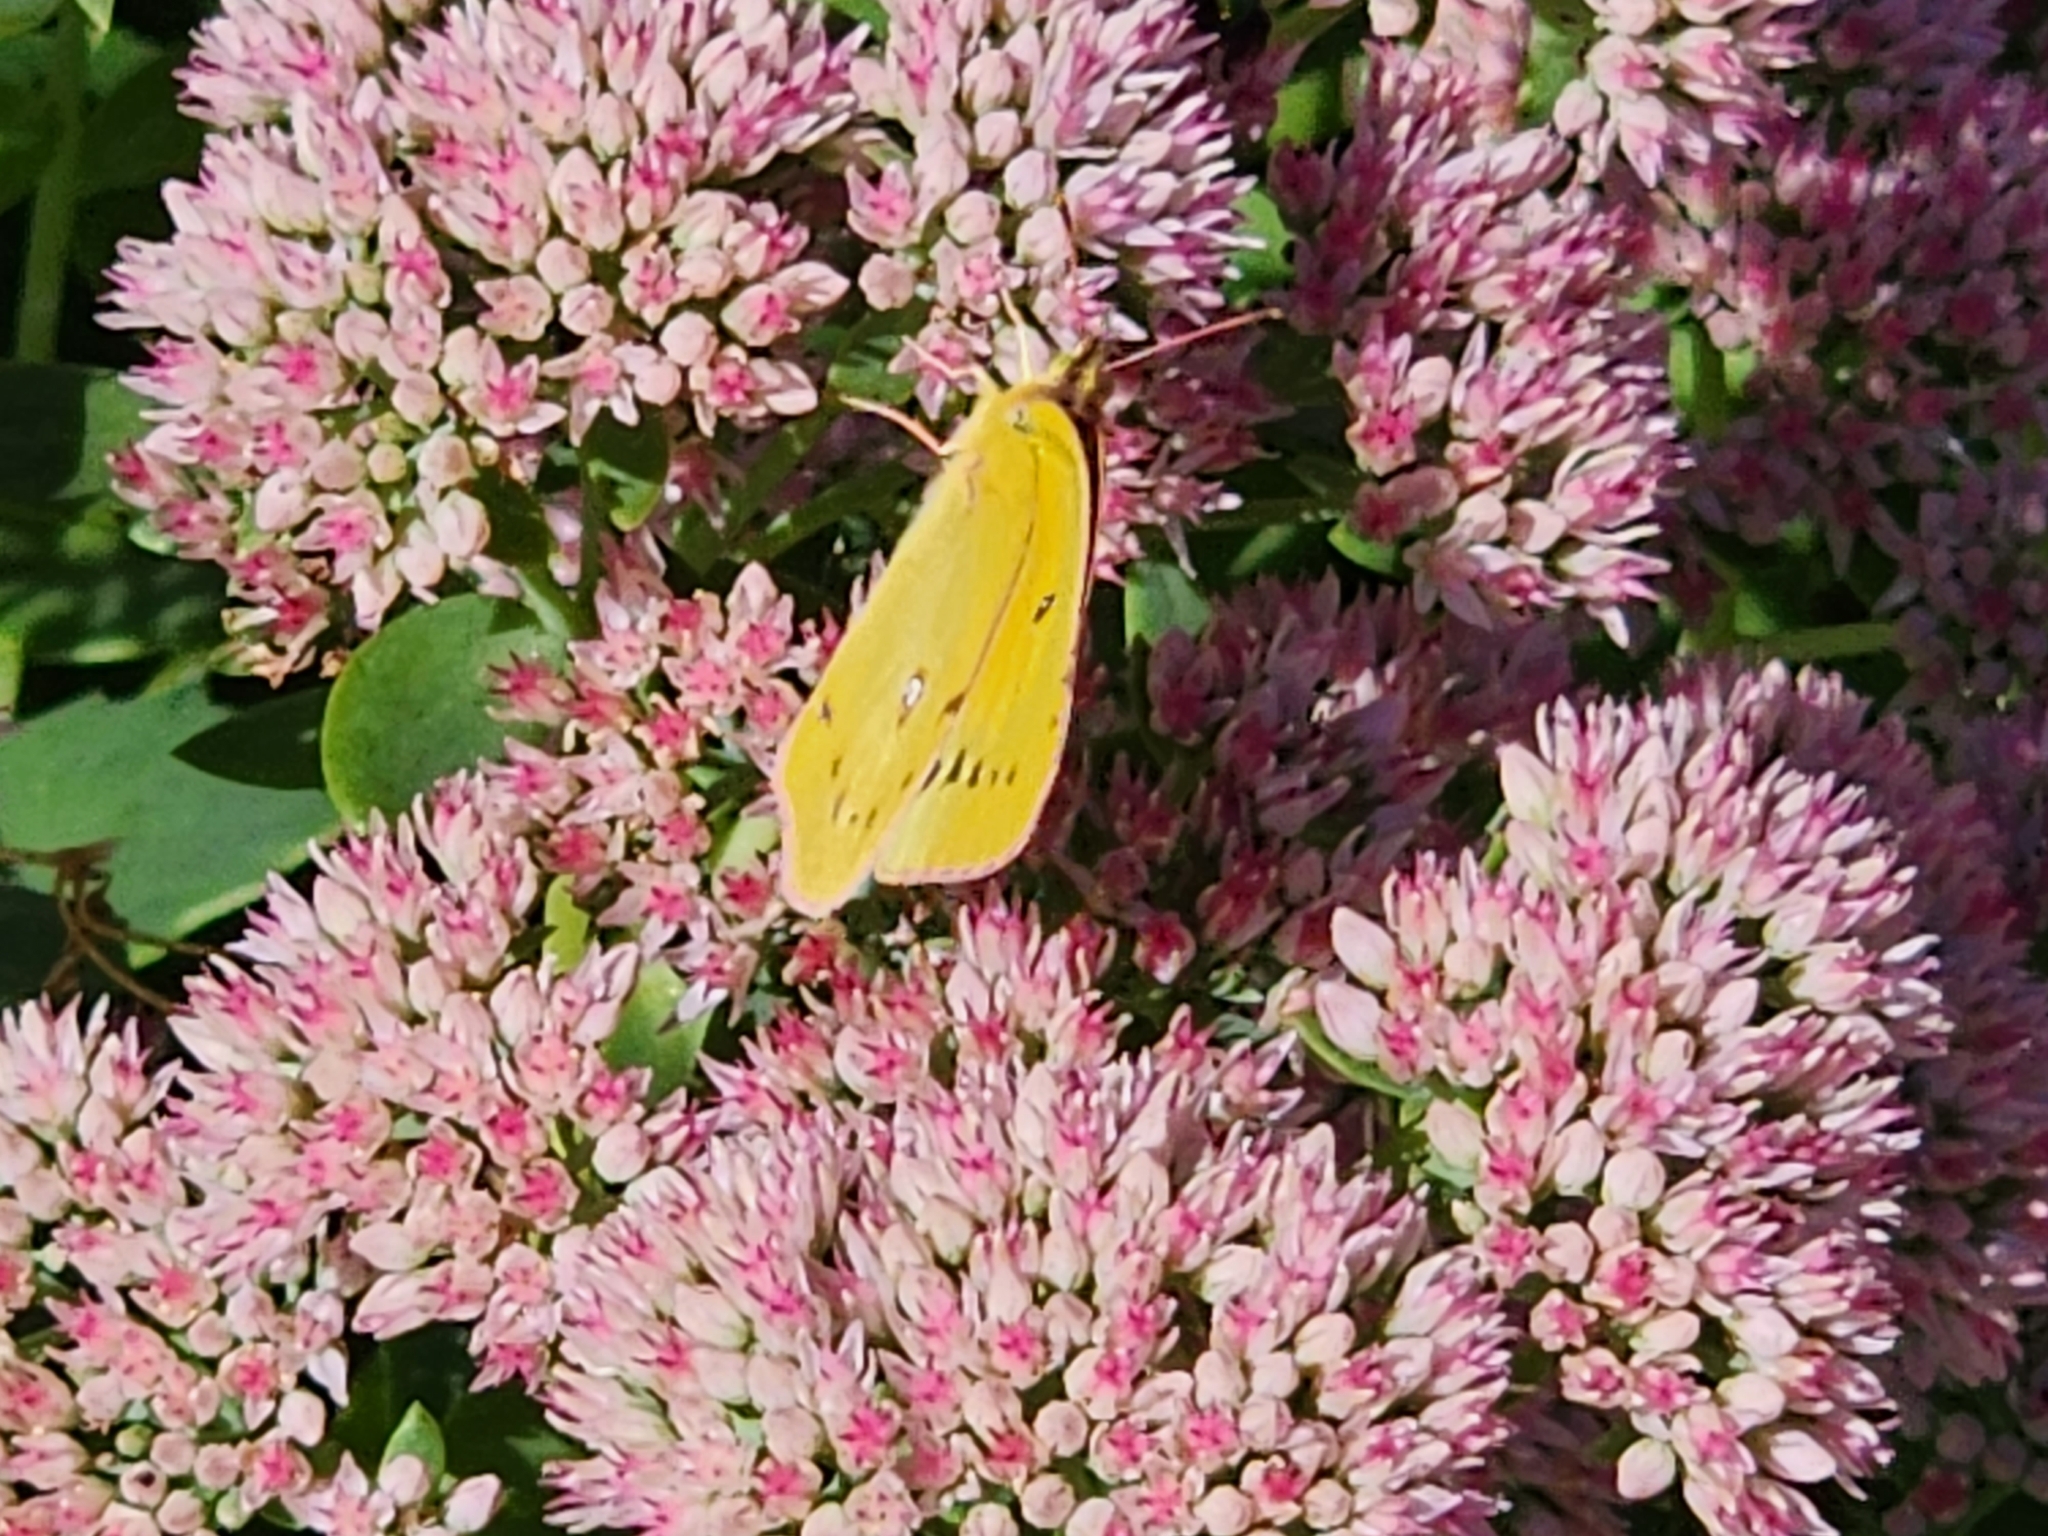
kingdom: Animalia
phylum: Arthropoda
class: Insecta
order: Lepidoptera
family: Pieridae
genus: Colias
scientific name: Colias eurytheme
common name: Alfalfa butterfly
